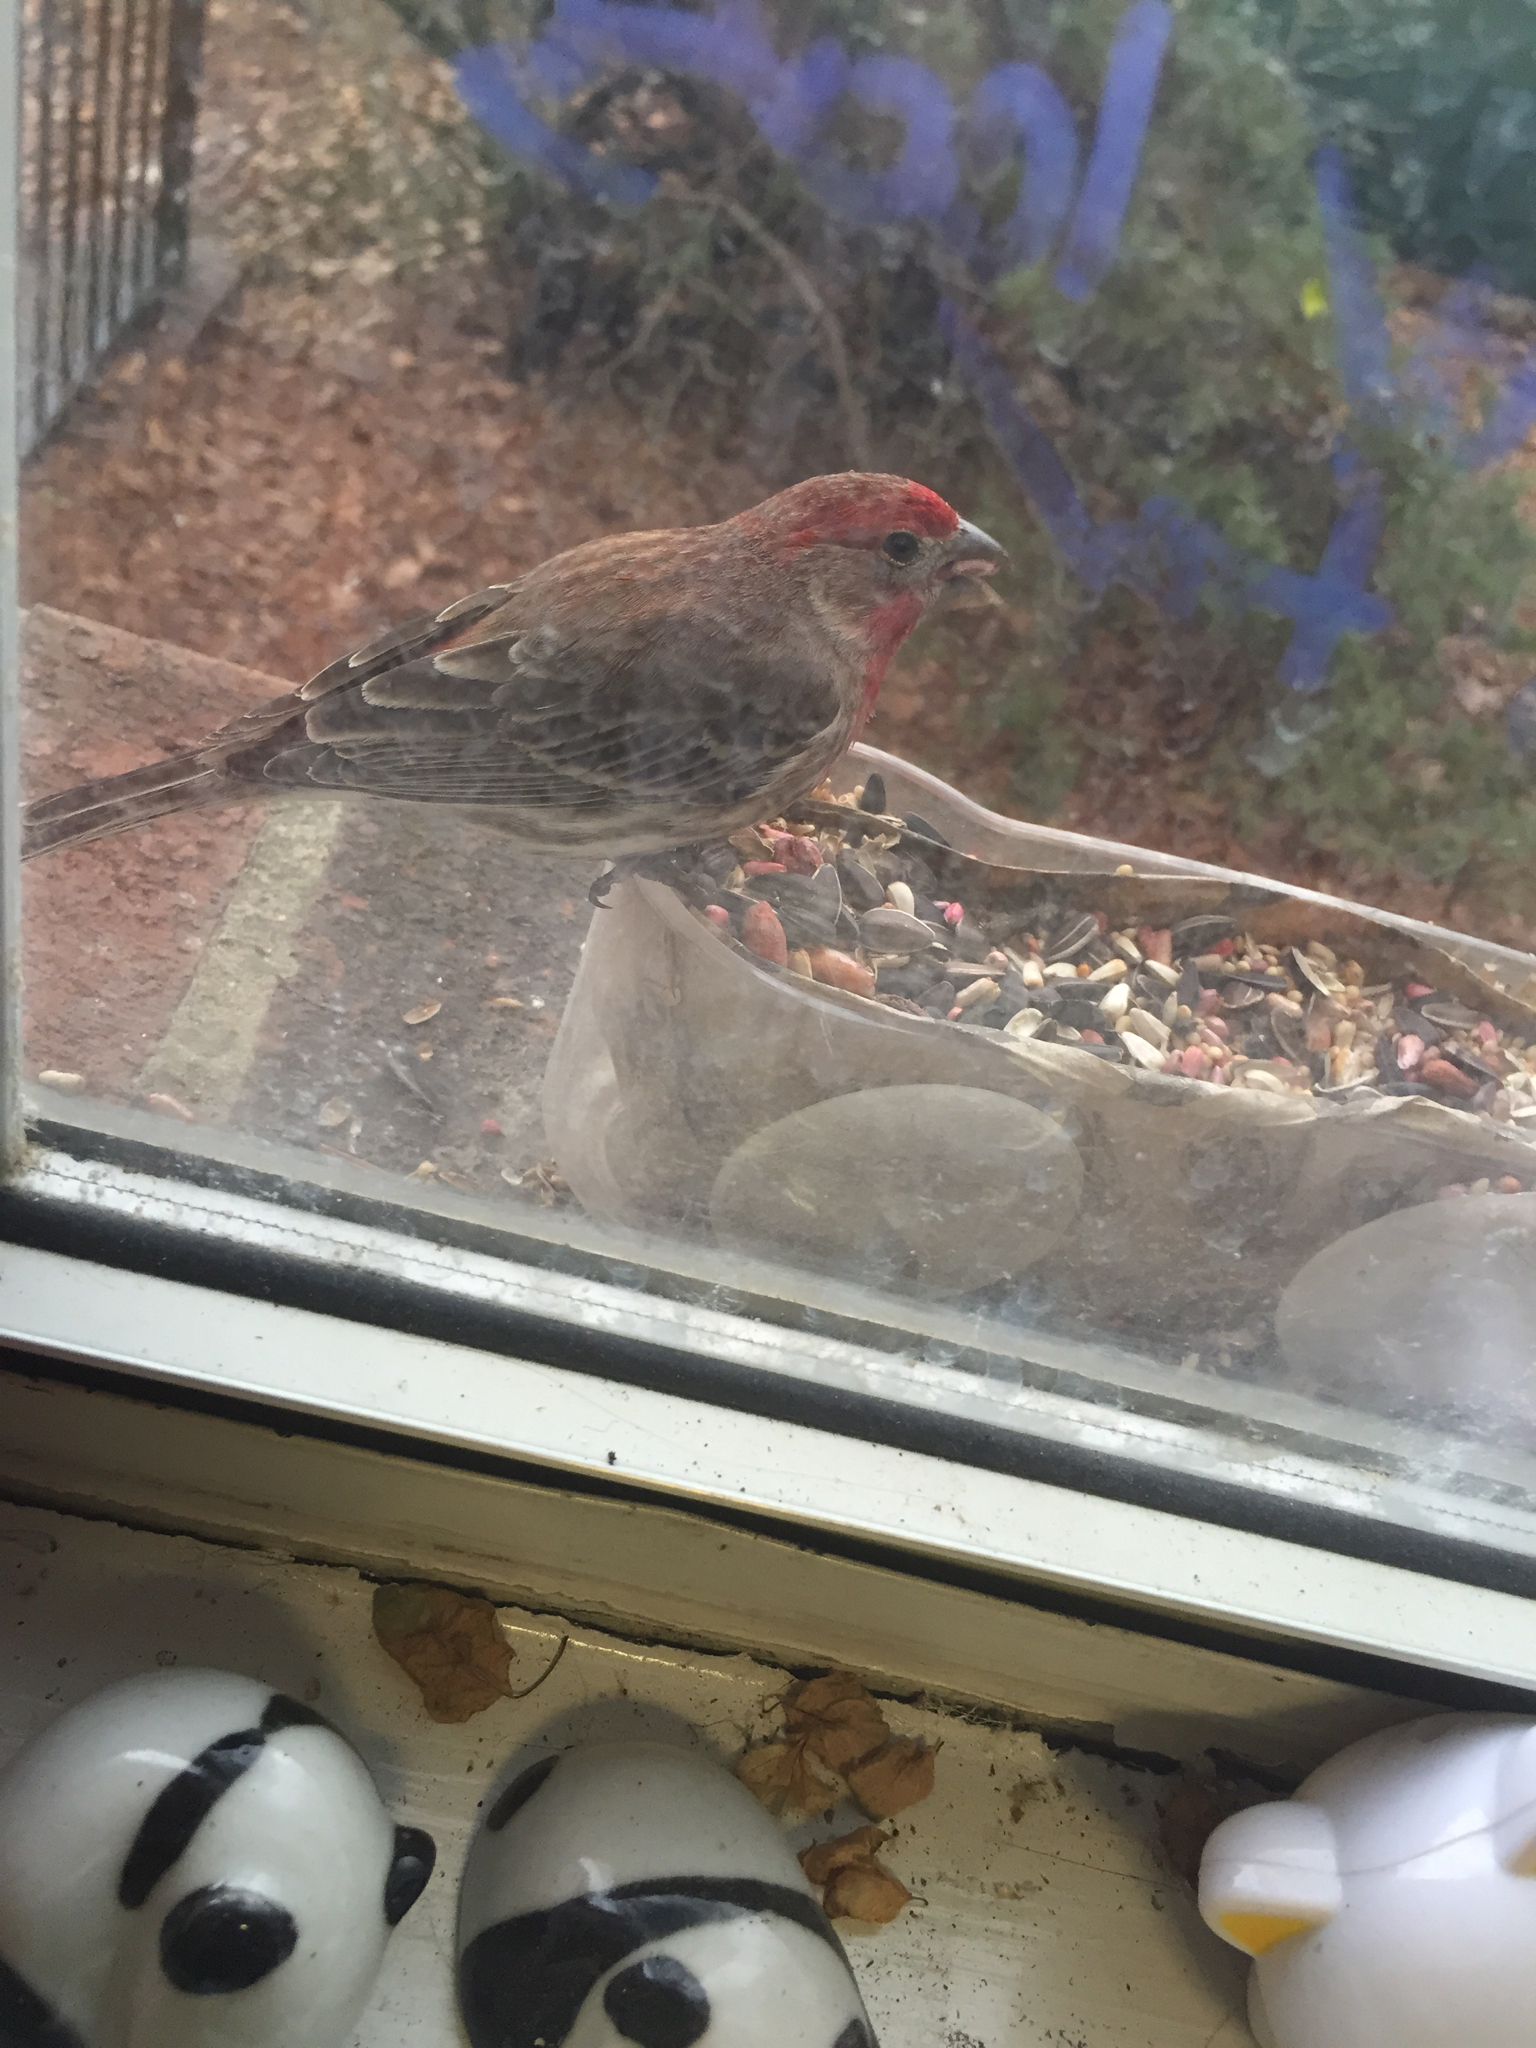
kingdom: Animalia
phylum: Chordata
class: Aves
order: Passeriformes
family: Fringillidae
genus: Haemorhous
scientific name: Haemorhous mexicanus
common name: House finch
